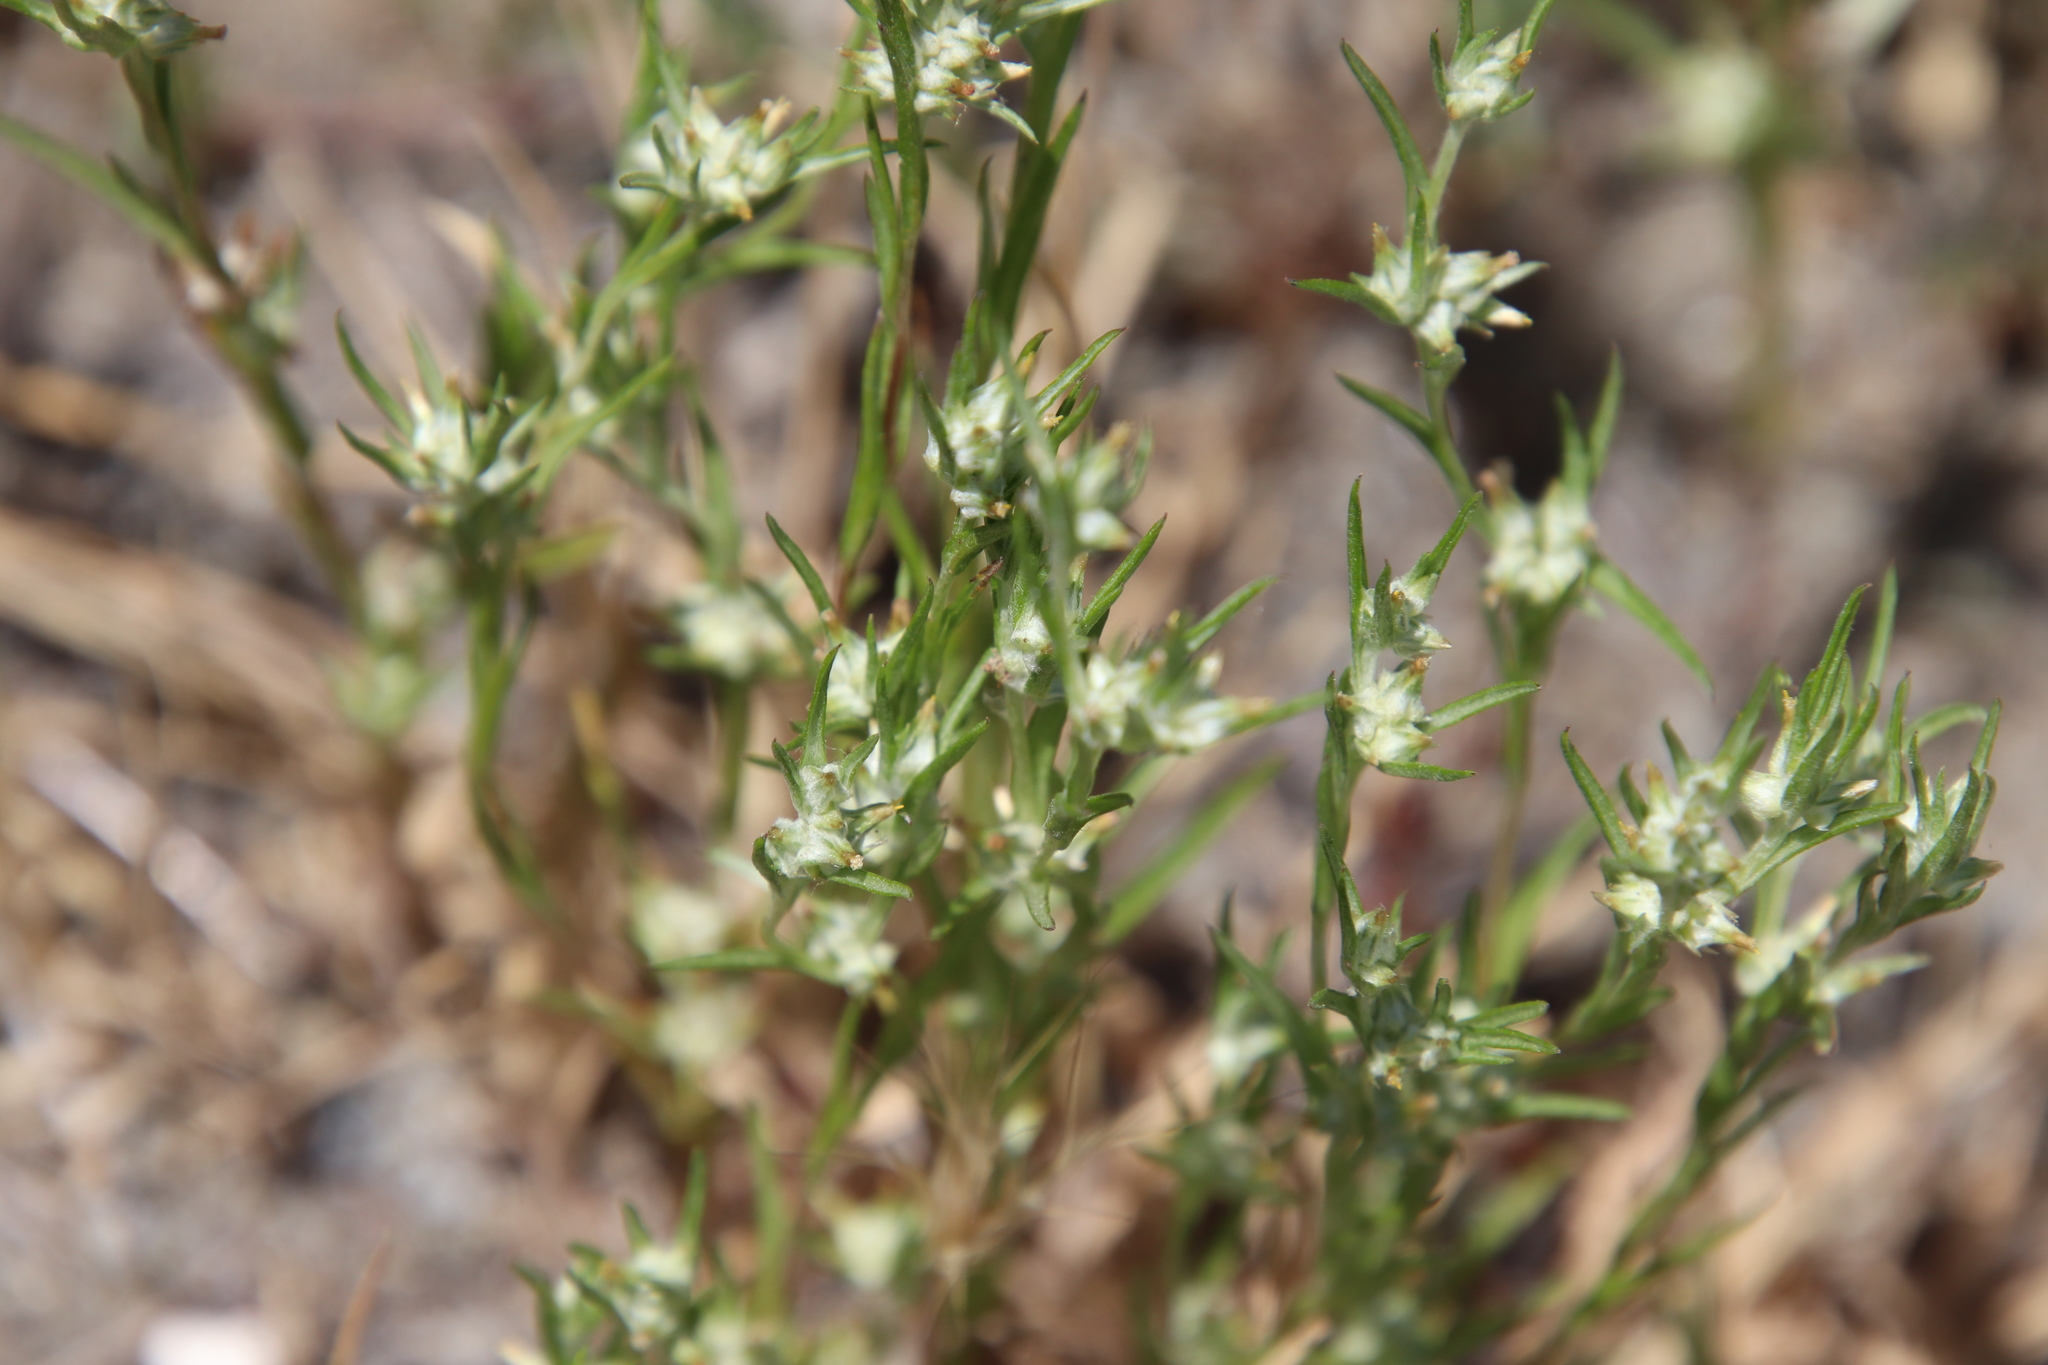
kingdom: Plantae
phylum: Tracheophyta
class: Magnoliopsida
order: Asterales
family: Asteraceae
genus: Logfia
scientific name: Logfia gallica
